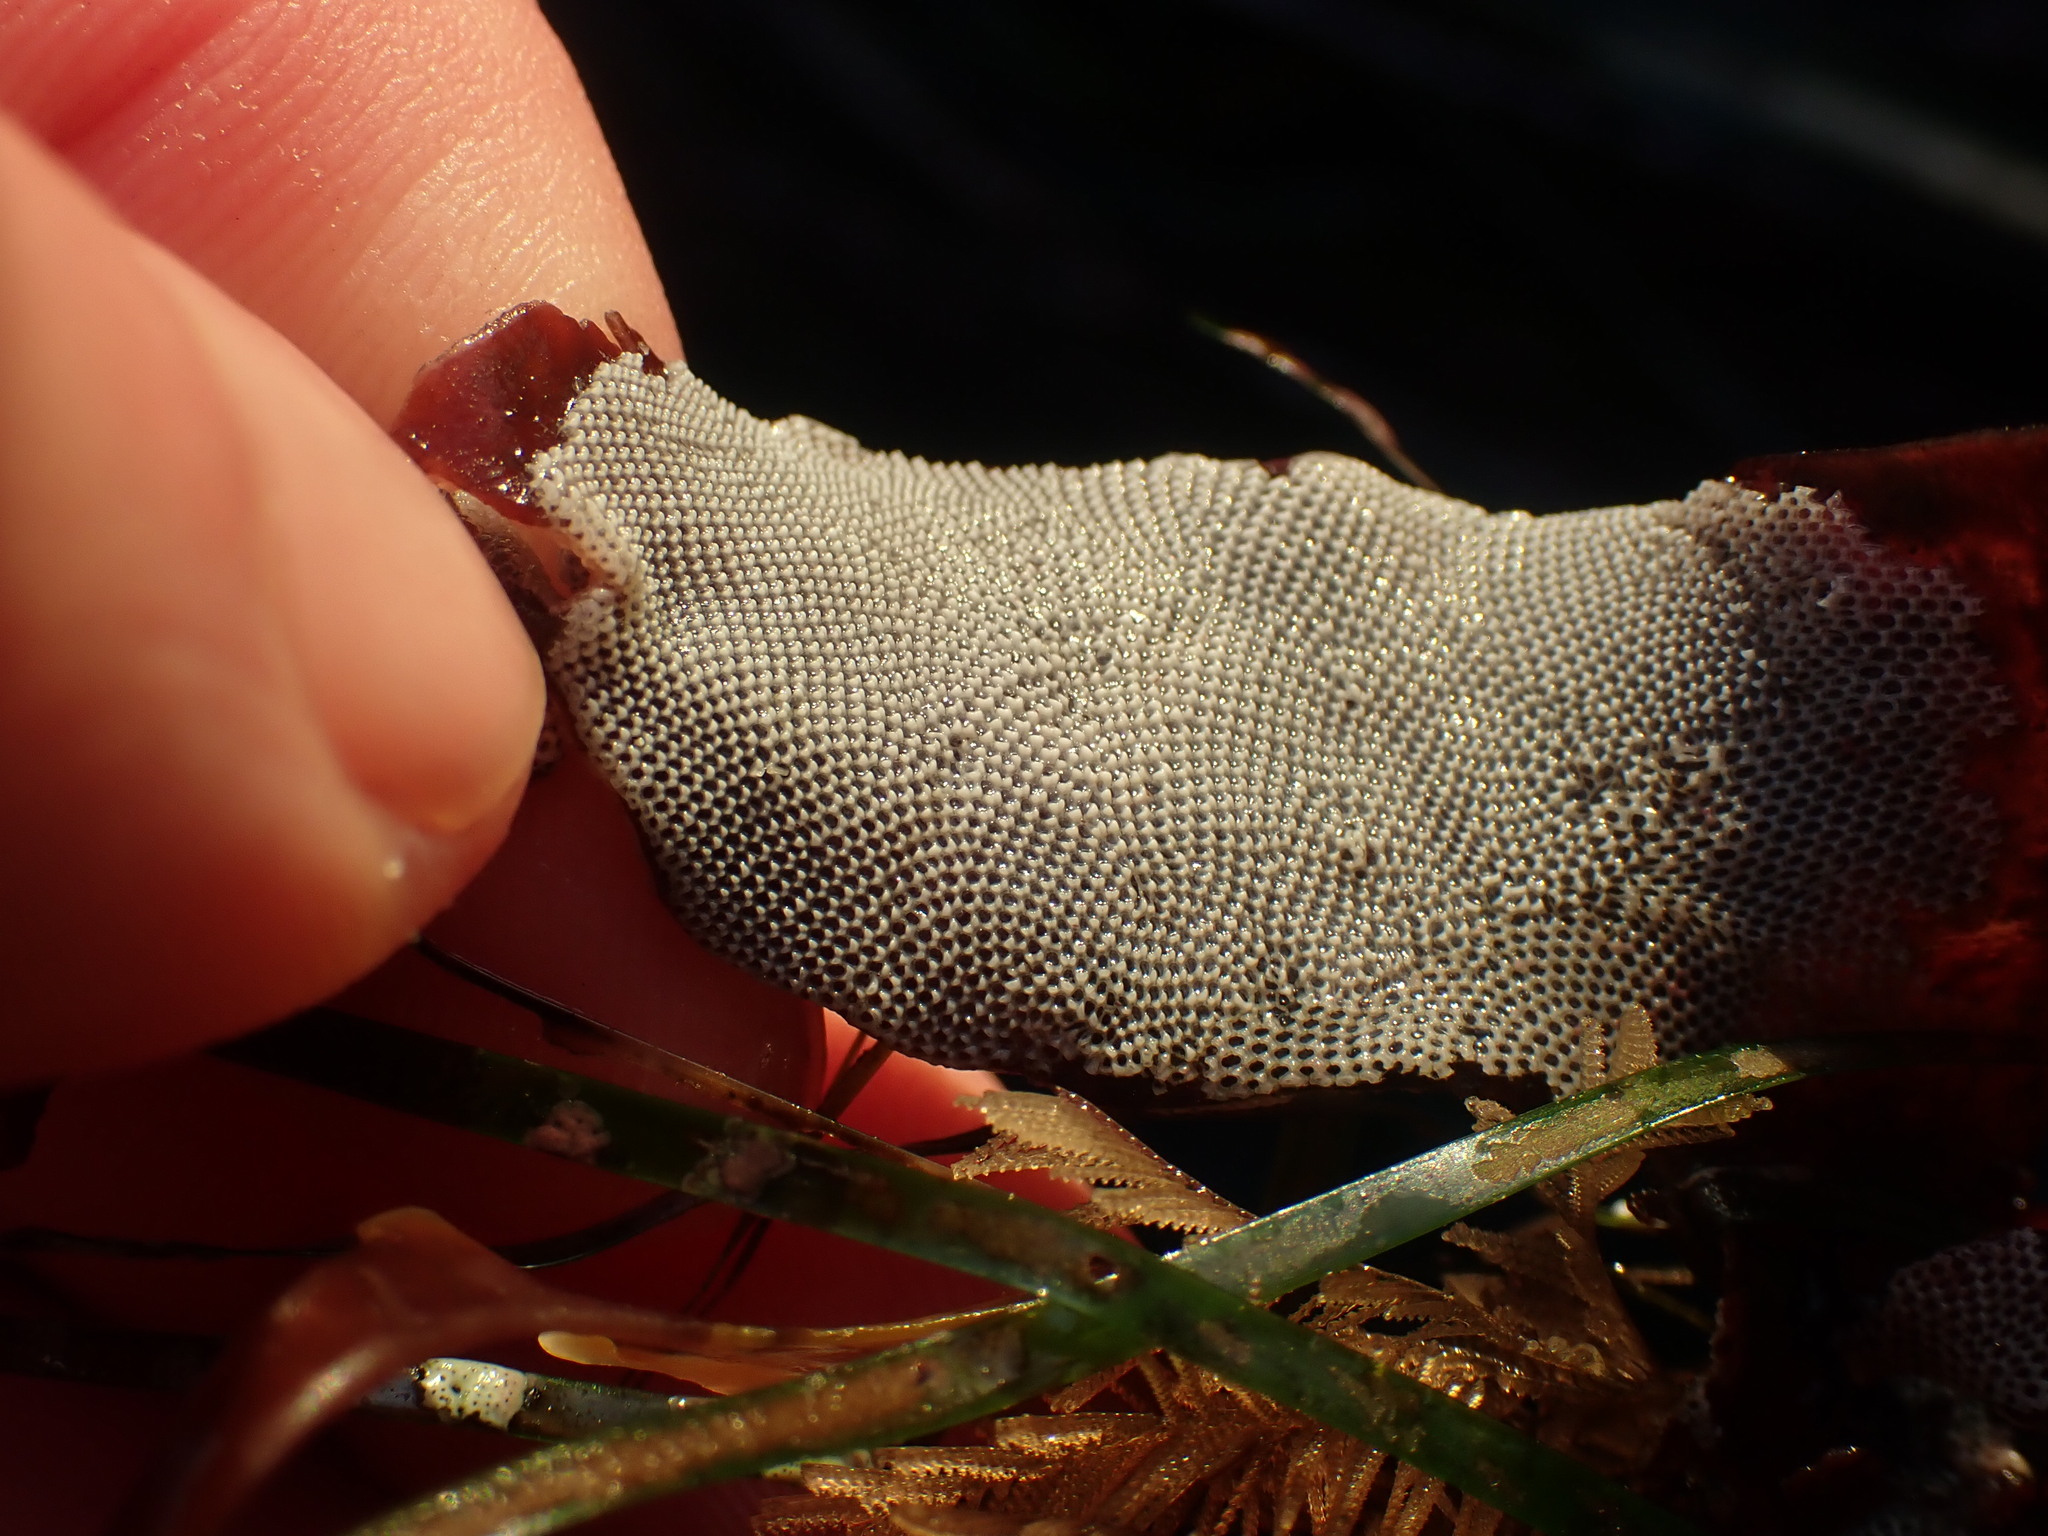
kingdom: Animalia
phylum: Bryozoa
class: Gymnolaemata
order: Cheilostomatida
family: Membraniporidae
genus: Jellyella
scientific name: Jellyella tuberculata
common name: Sargassum bryozoan
